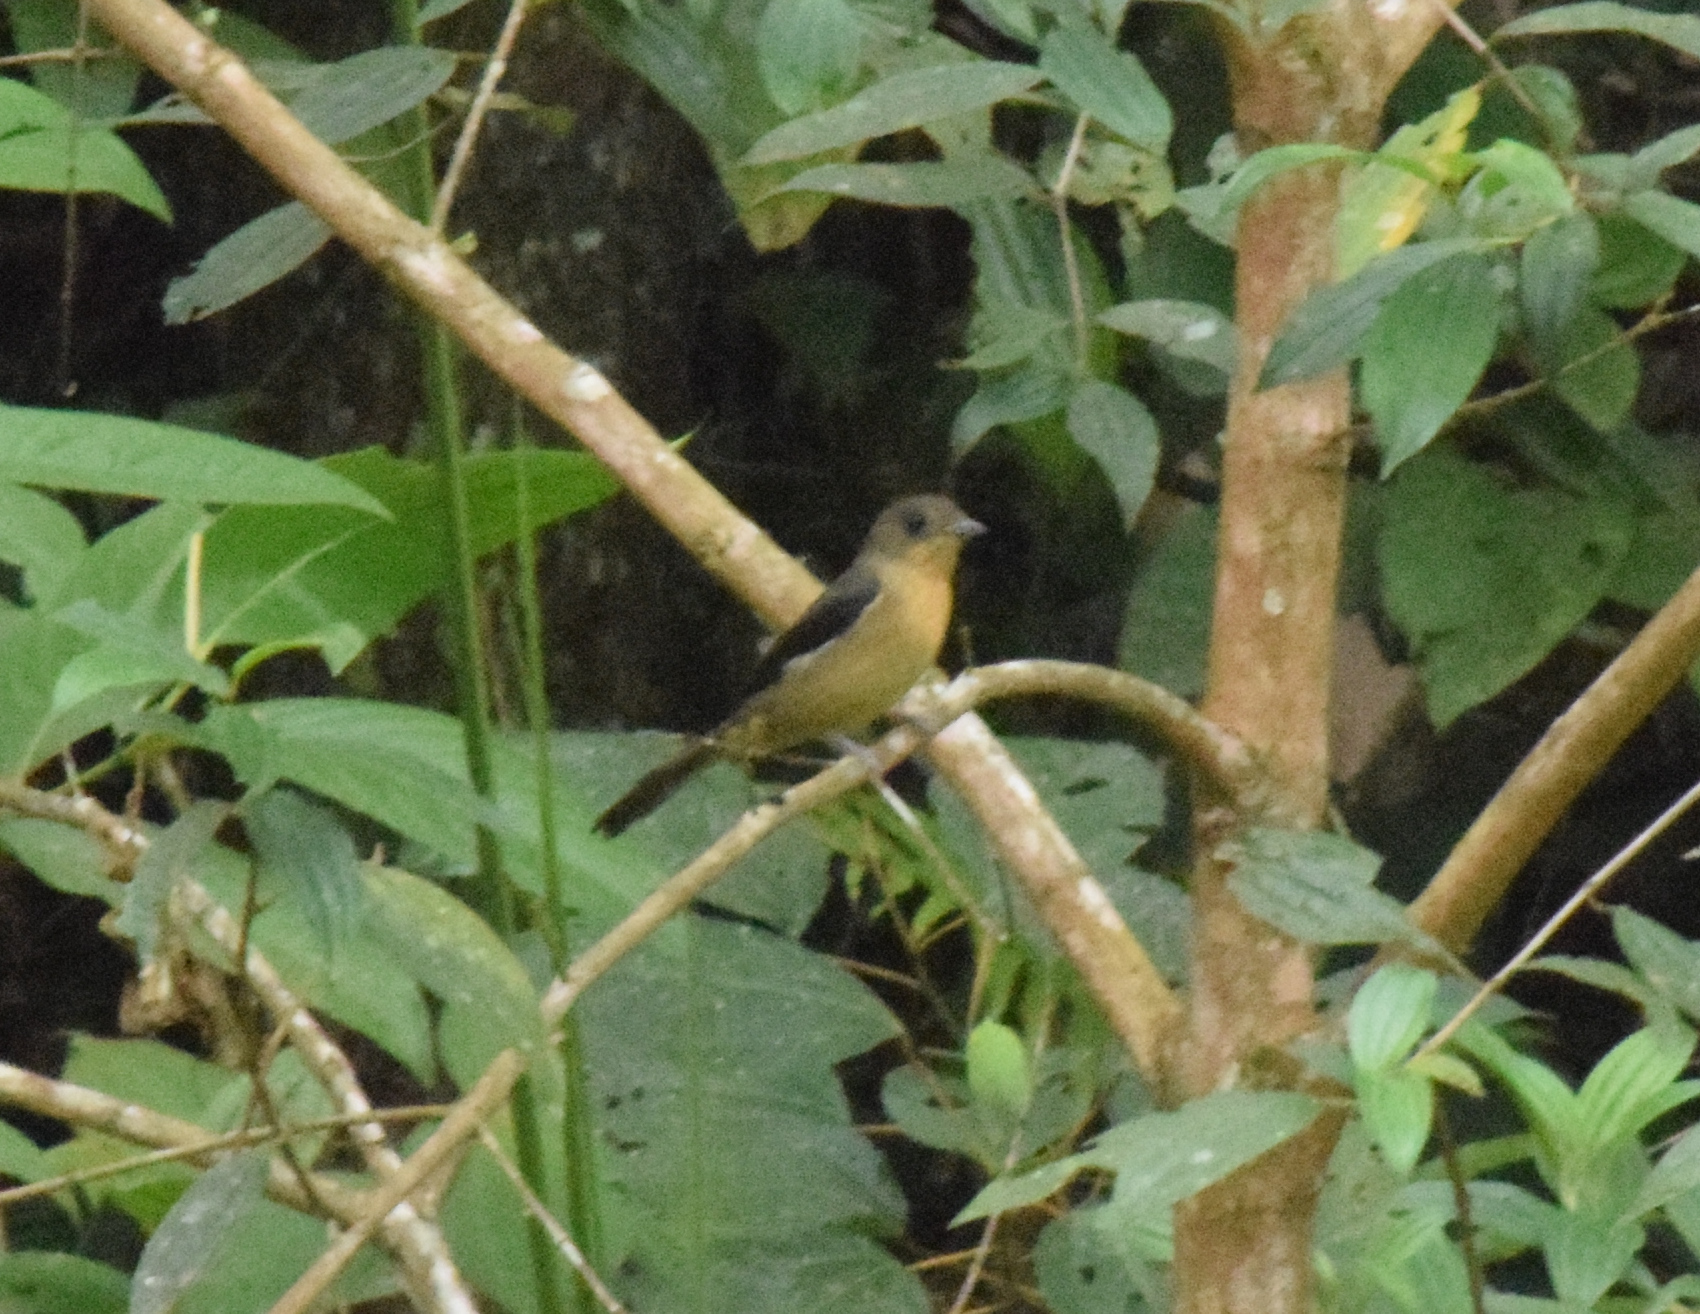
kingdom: Animalia
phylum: Chordata
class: Aves
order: Passeriformes
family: Thraupidae
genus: Trichothraupis
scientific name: Trichothraupis melanops
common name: Black-goggled tanager
